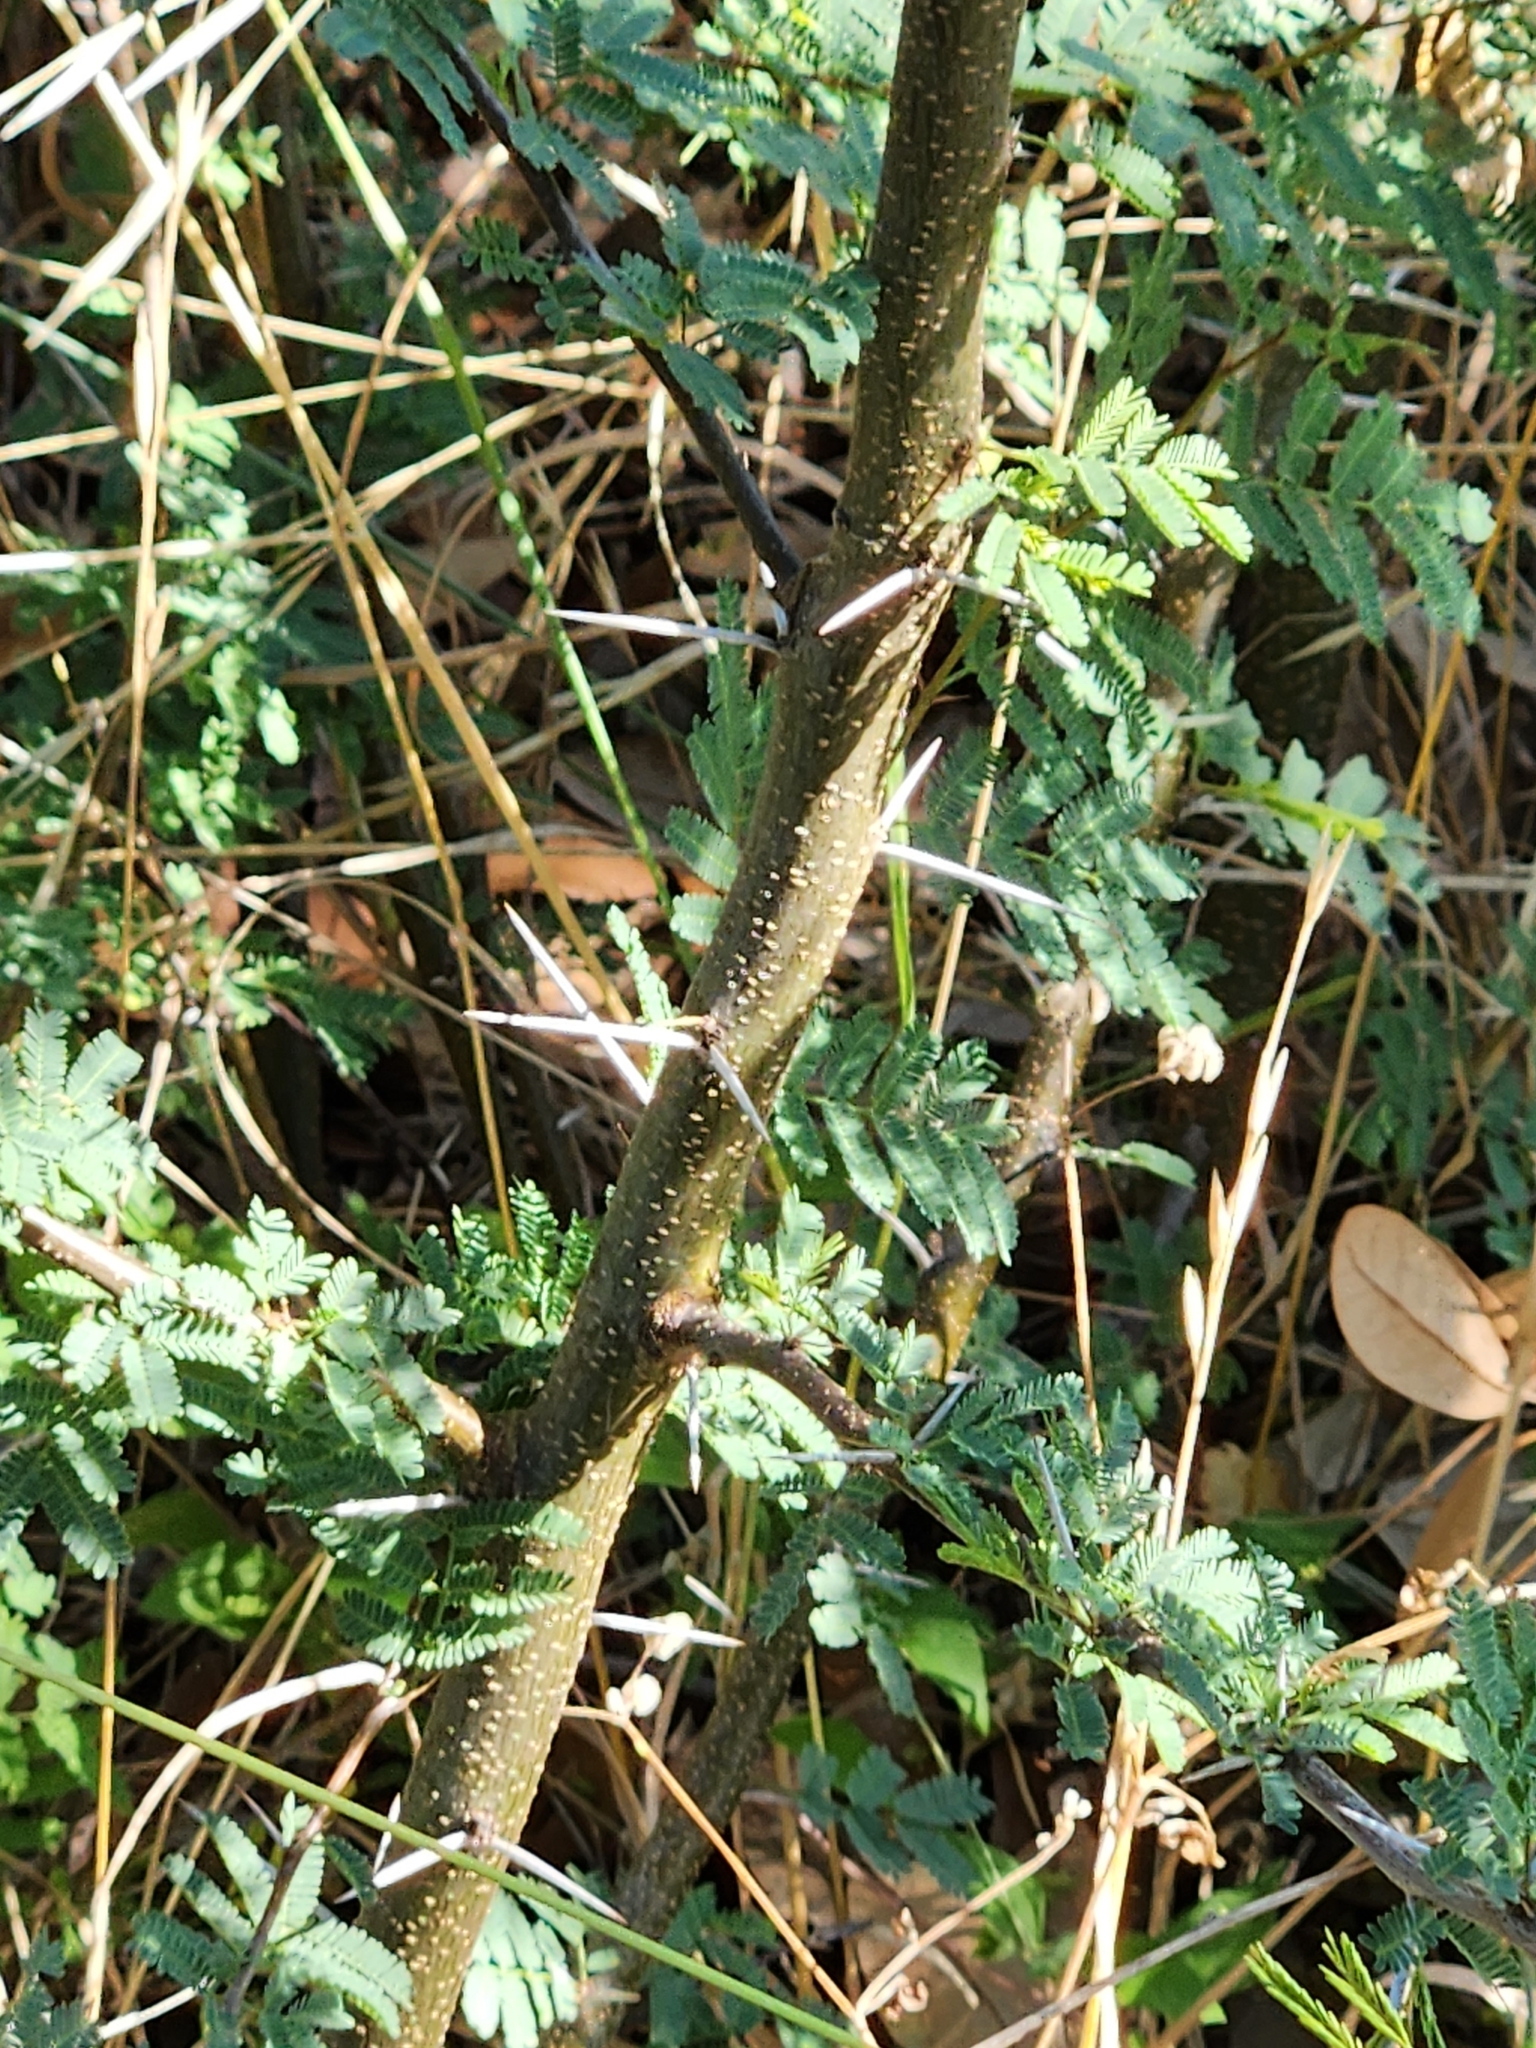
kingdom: Plantae
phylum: Tracheophyta
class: Magnoliopsida
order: Fabales
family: Fabaceae
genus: Vachellia
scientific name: Vachellia farnesiana
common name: Sweet acacia
